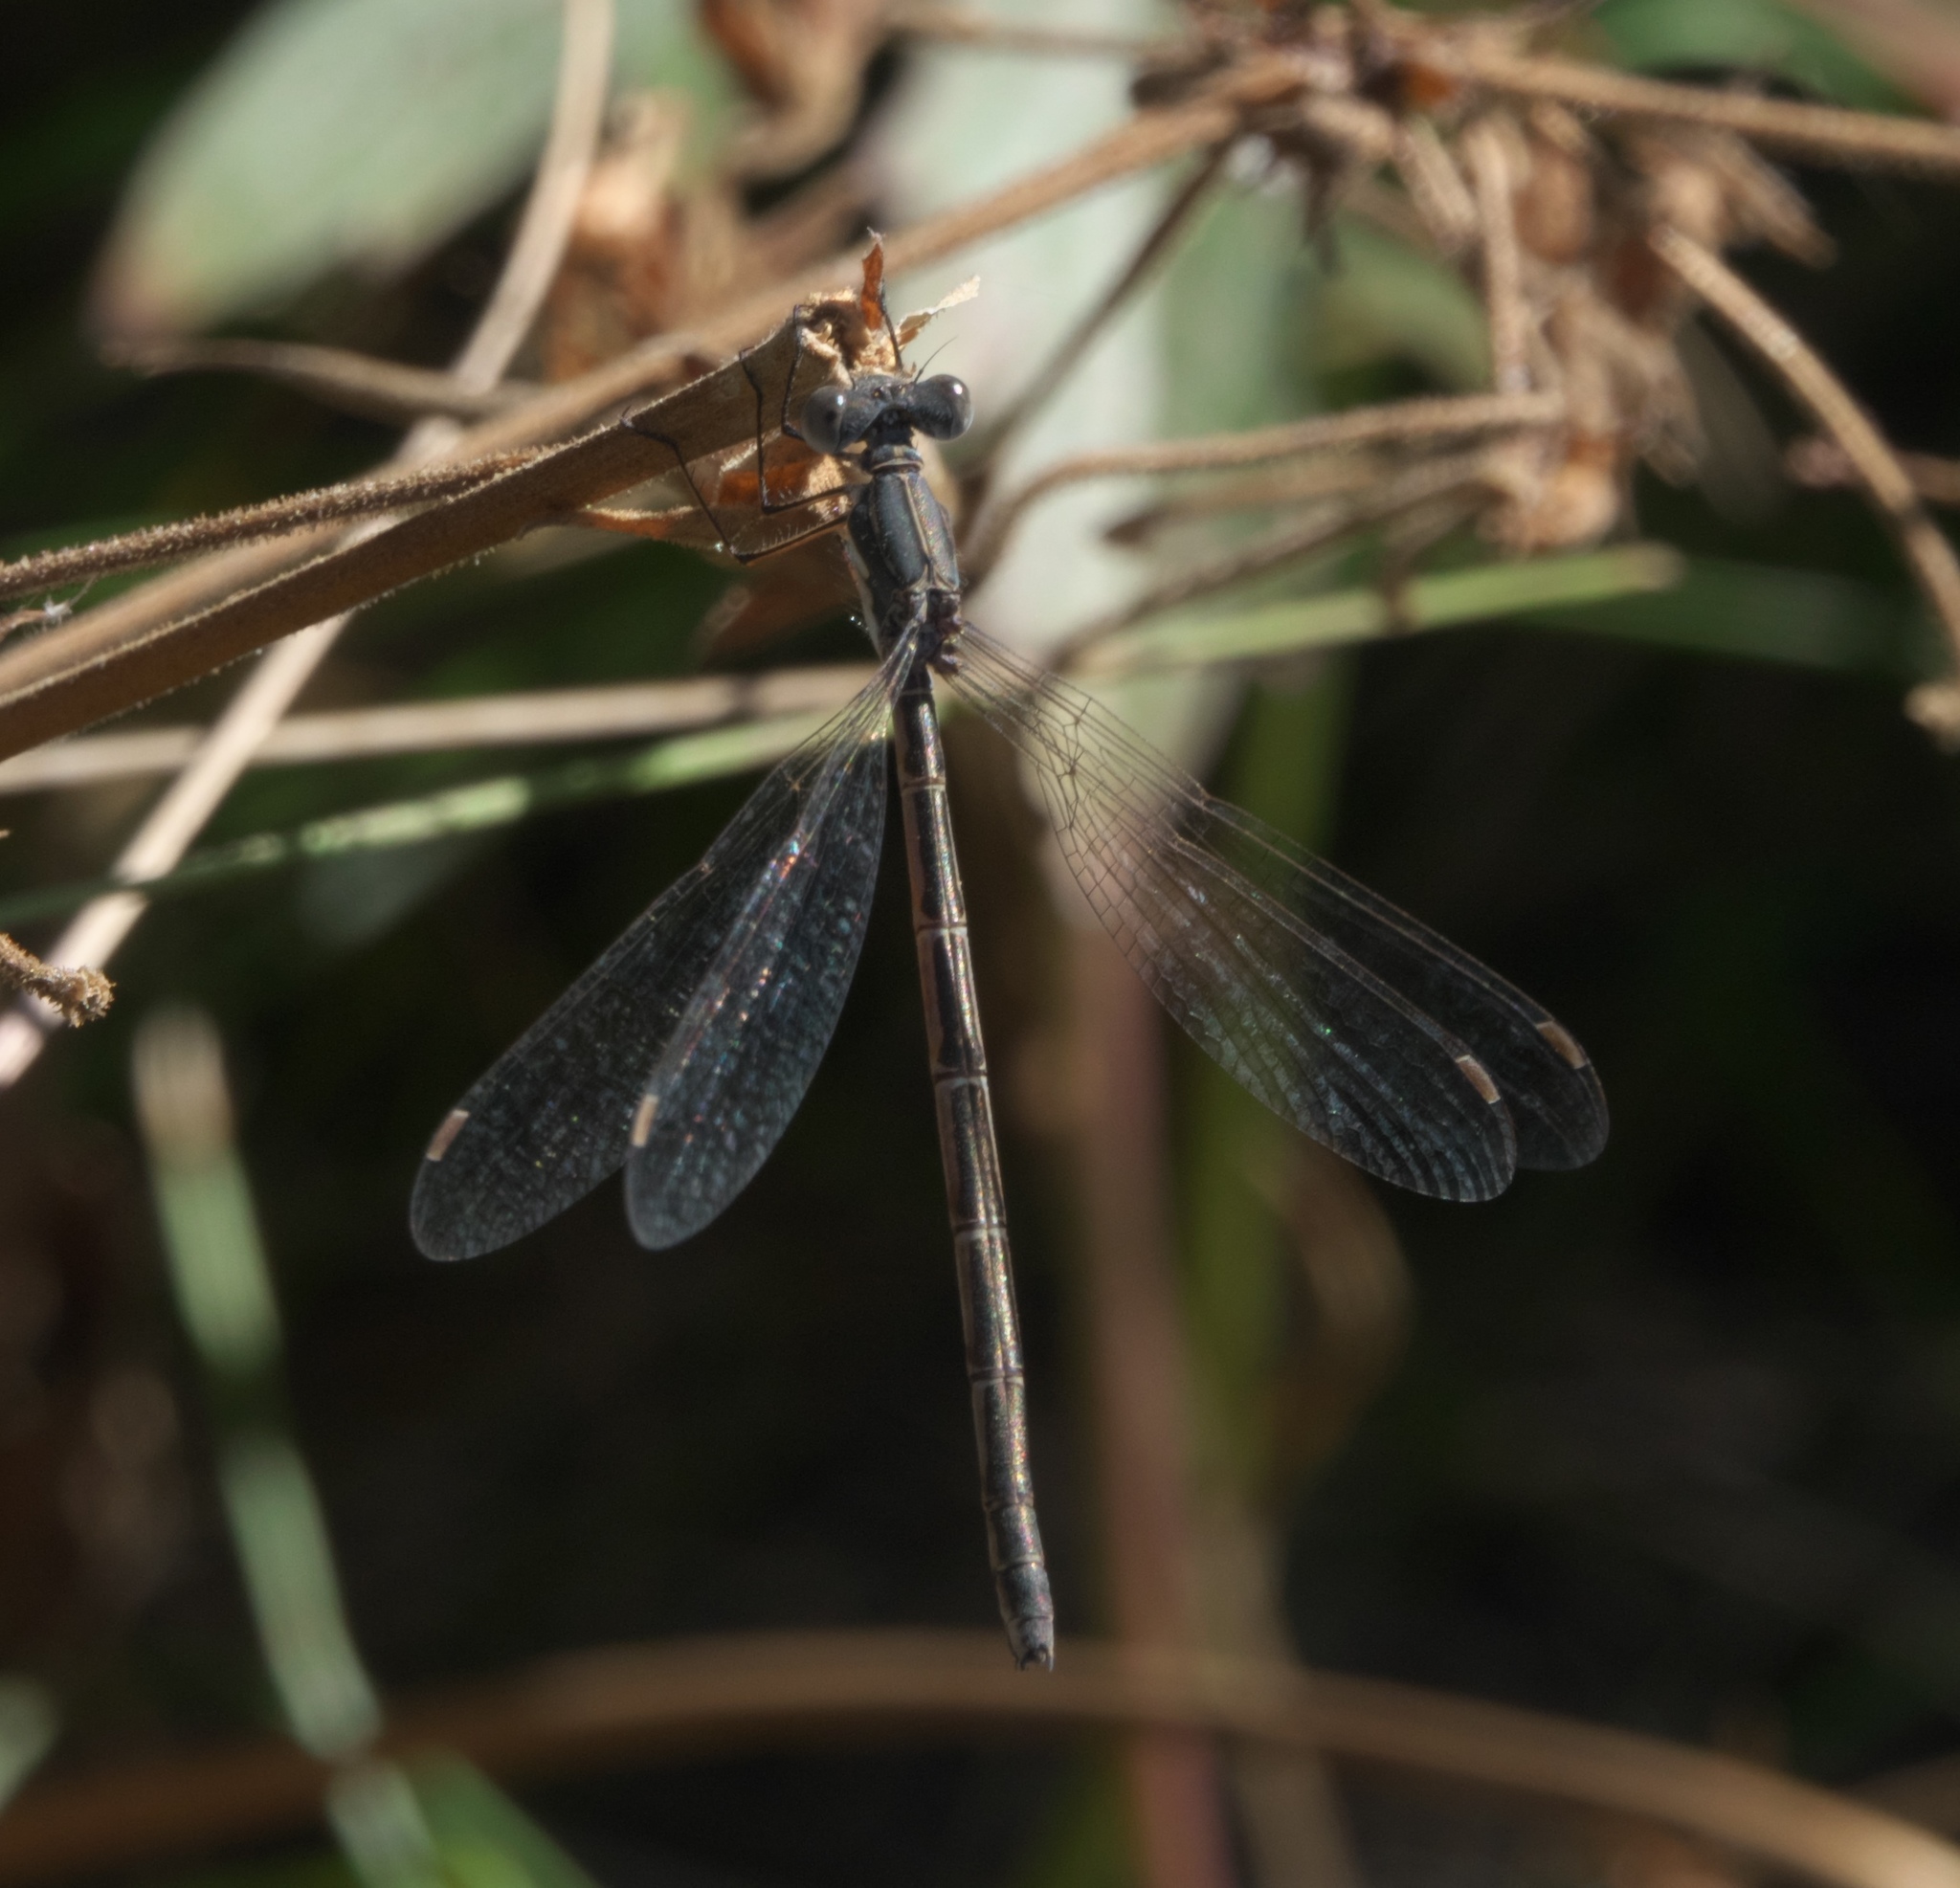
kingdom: Animalia
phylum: Arthropoda
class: Insecta
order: Odonata
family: Lestidae
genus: Lestes
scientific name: Lestes congener
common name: Spotted spreadwing
